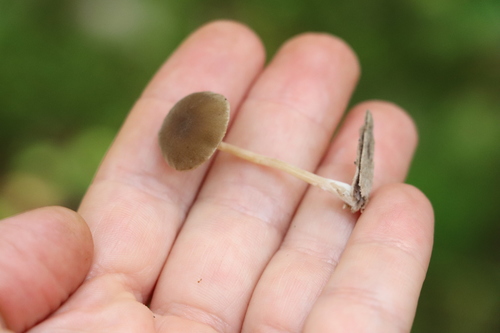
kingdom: Fungi
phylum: Basidiomycota
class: Agaricomycetes
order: Agaricales
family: Crepidotaceae
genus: Simocybe
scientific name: Simocybe centunculus
